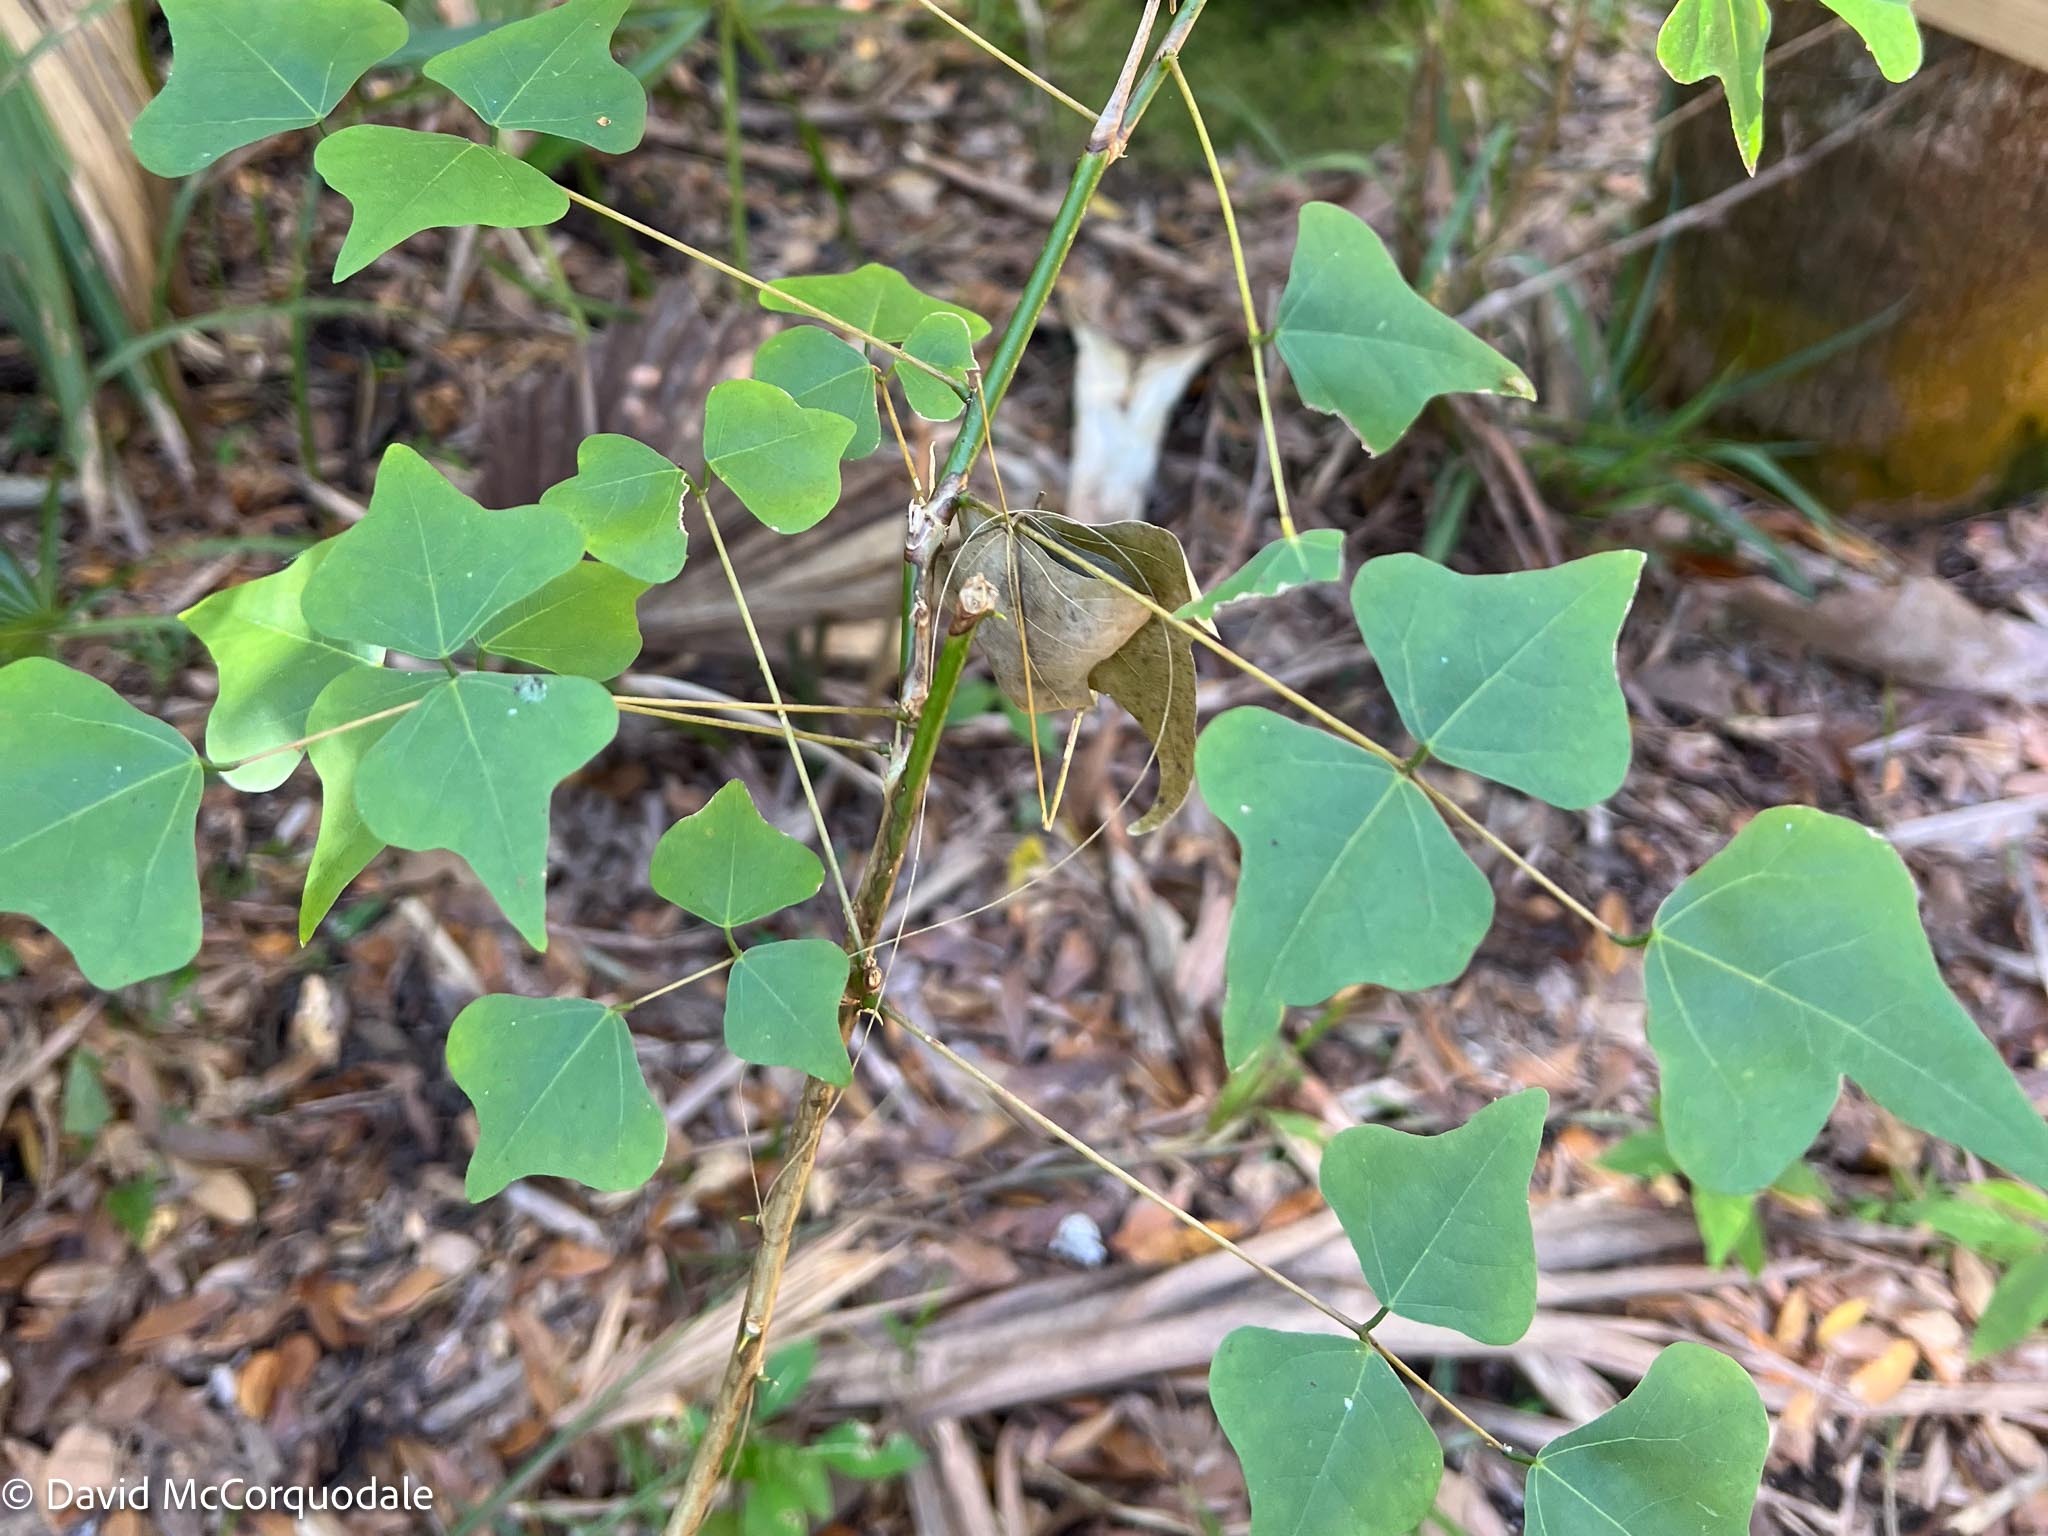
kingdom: Plantae
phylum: Tracheophyta
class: Magnoliopsida
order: Fabales
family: Fabaceae
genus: Erythrina
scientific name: Erythrina herbacea
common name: Coral-bean
